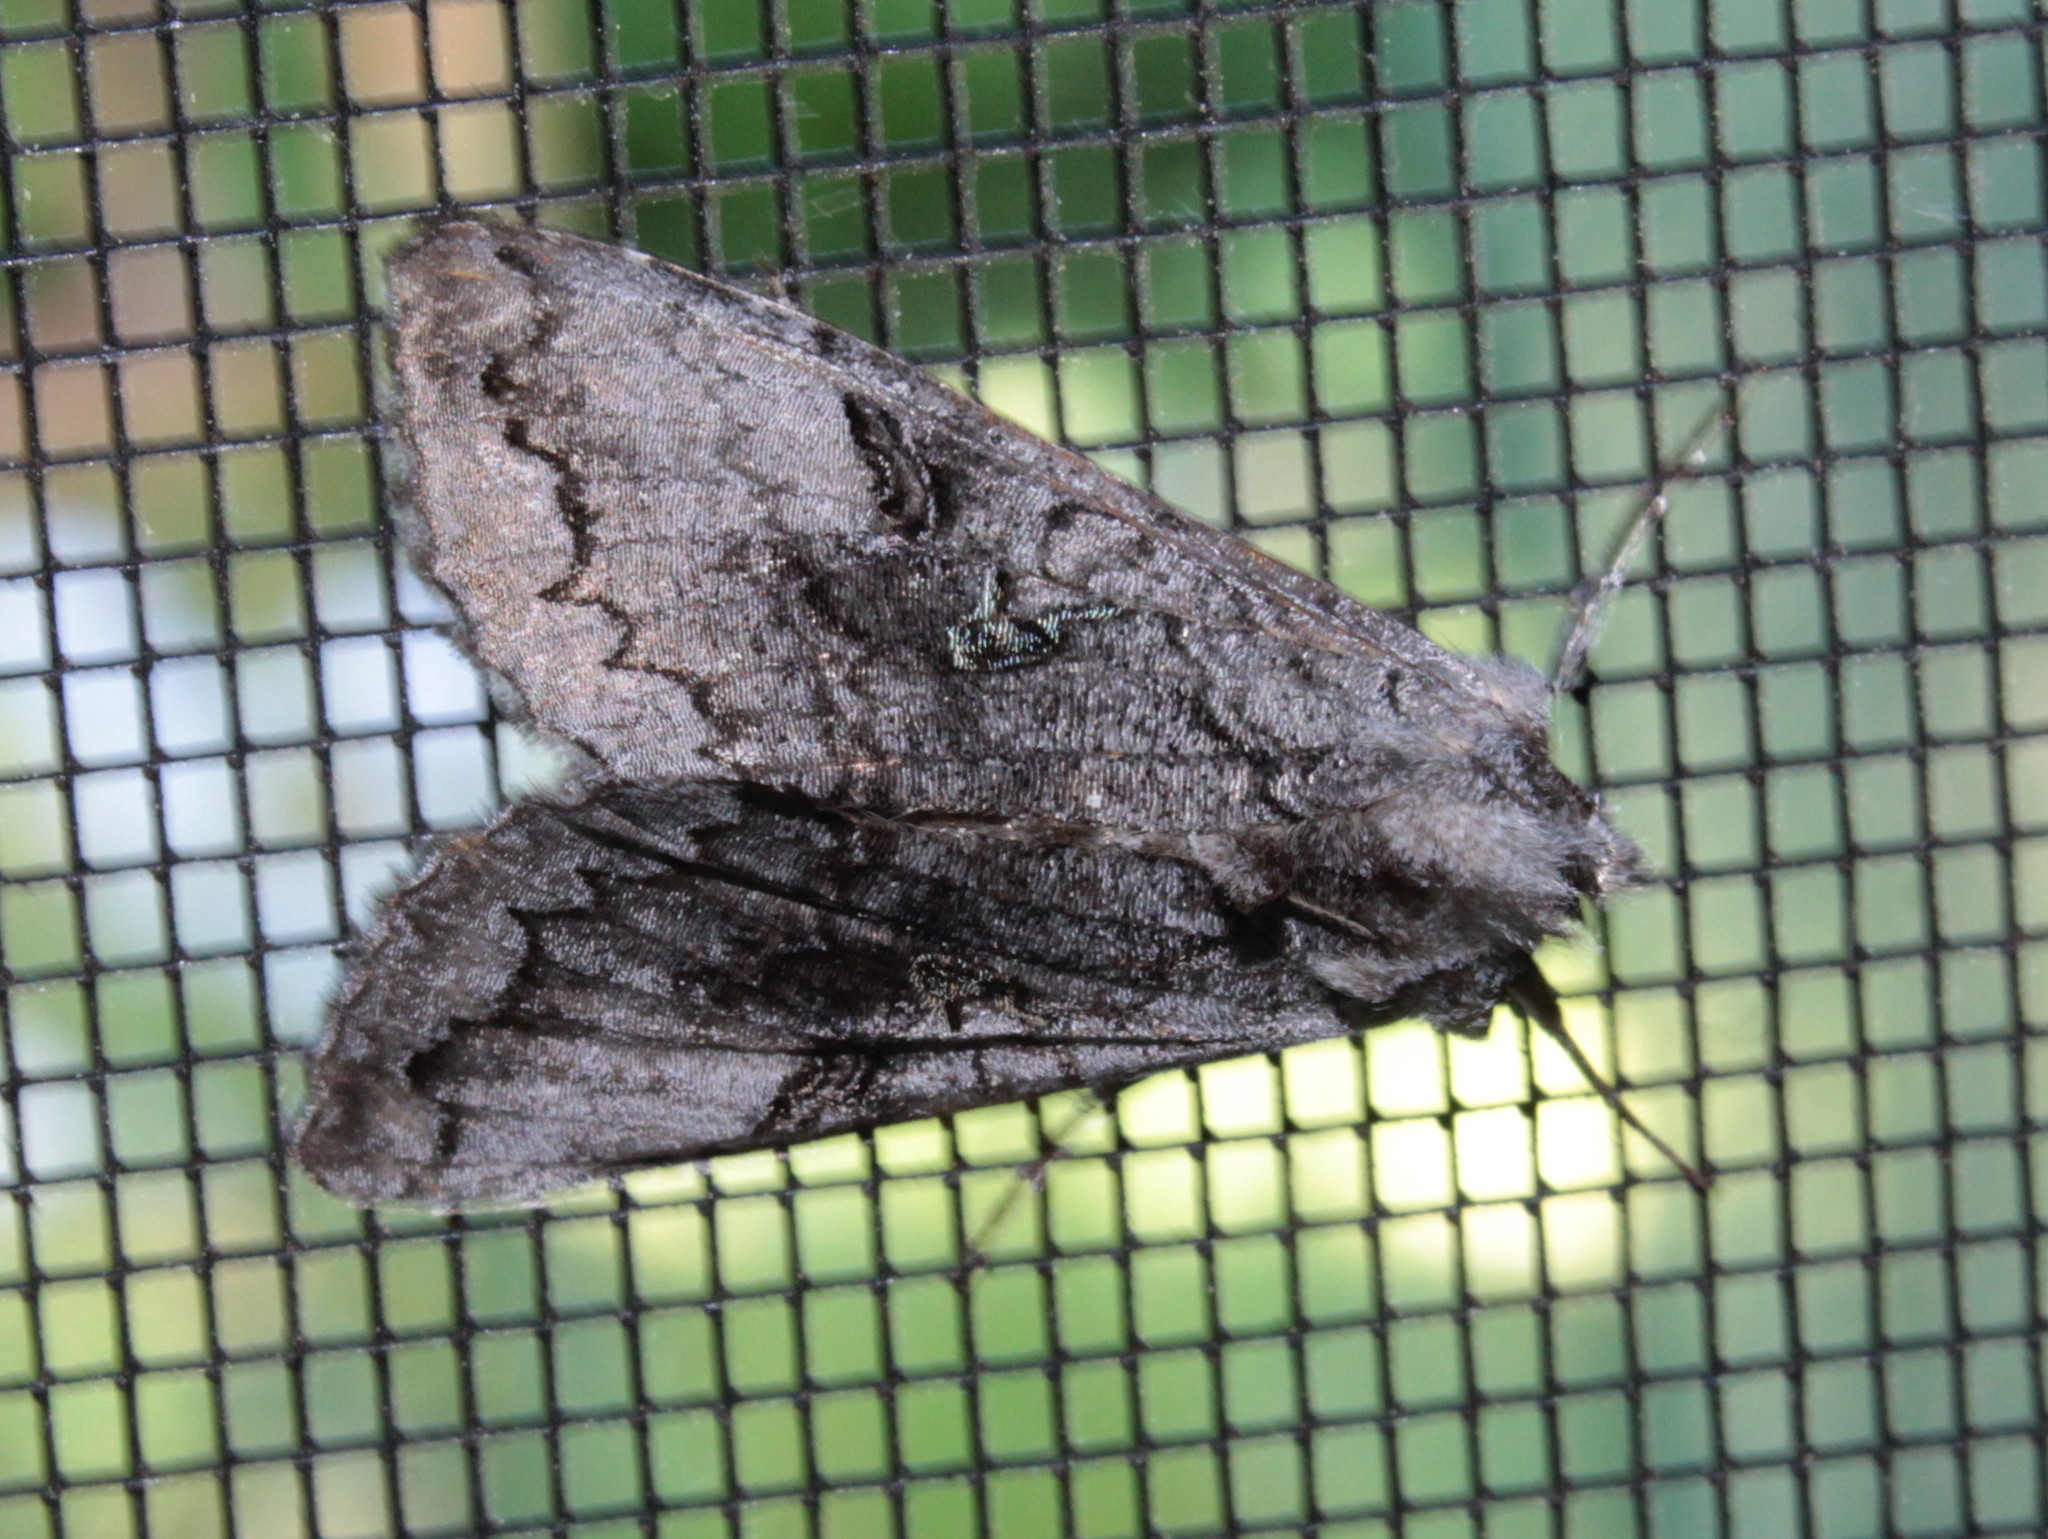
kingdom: Animalia
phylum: Arthropoda
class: Insecta
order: Lepidoptera
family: Noctuidae
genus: Syngrapha
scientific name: Syngrapha viridisigma
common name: Spruce false looper moth
